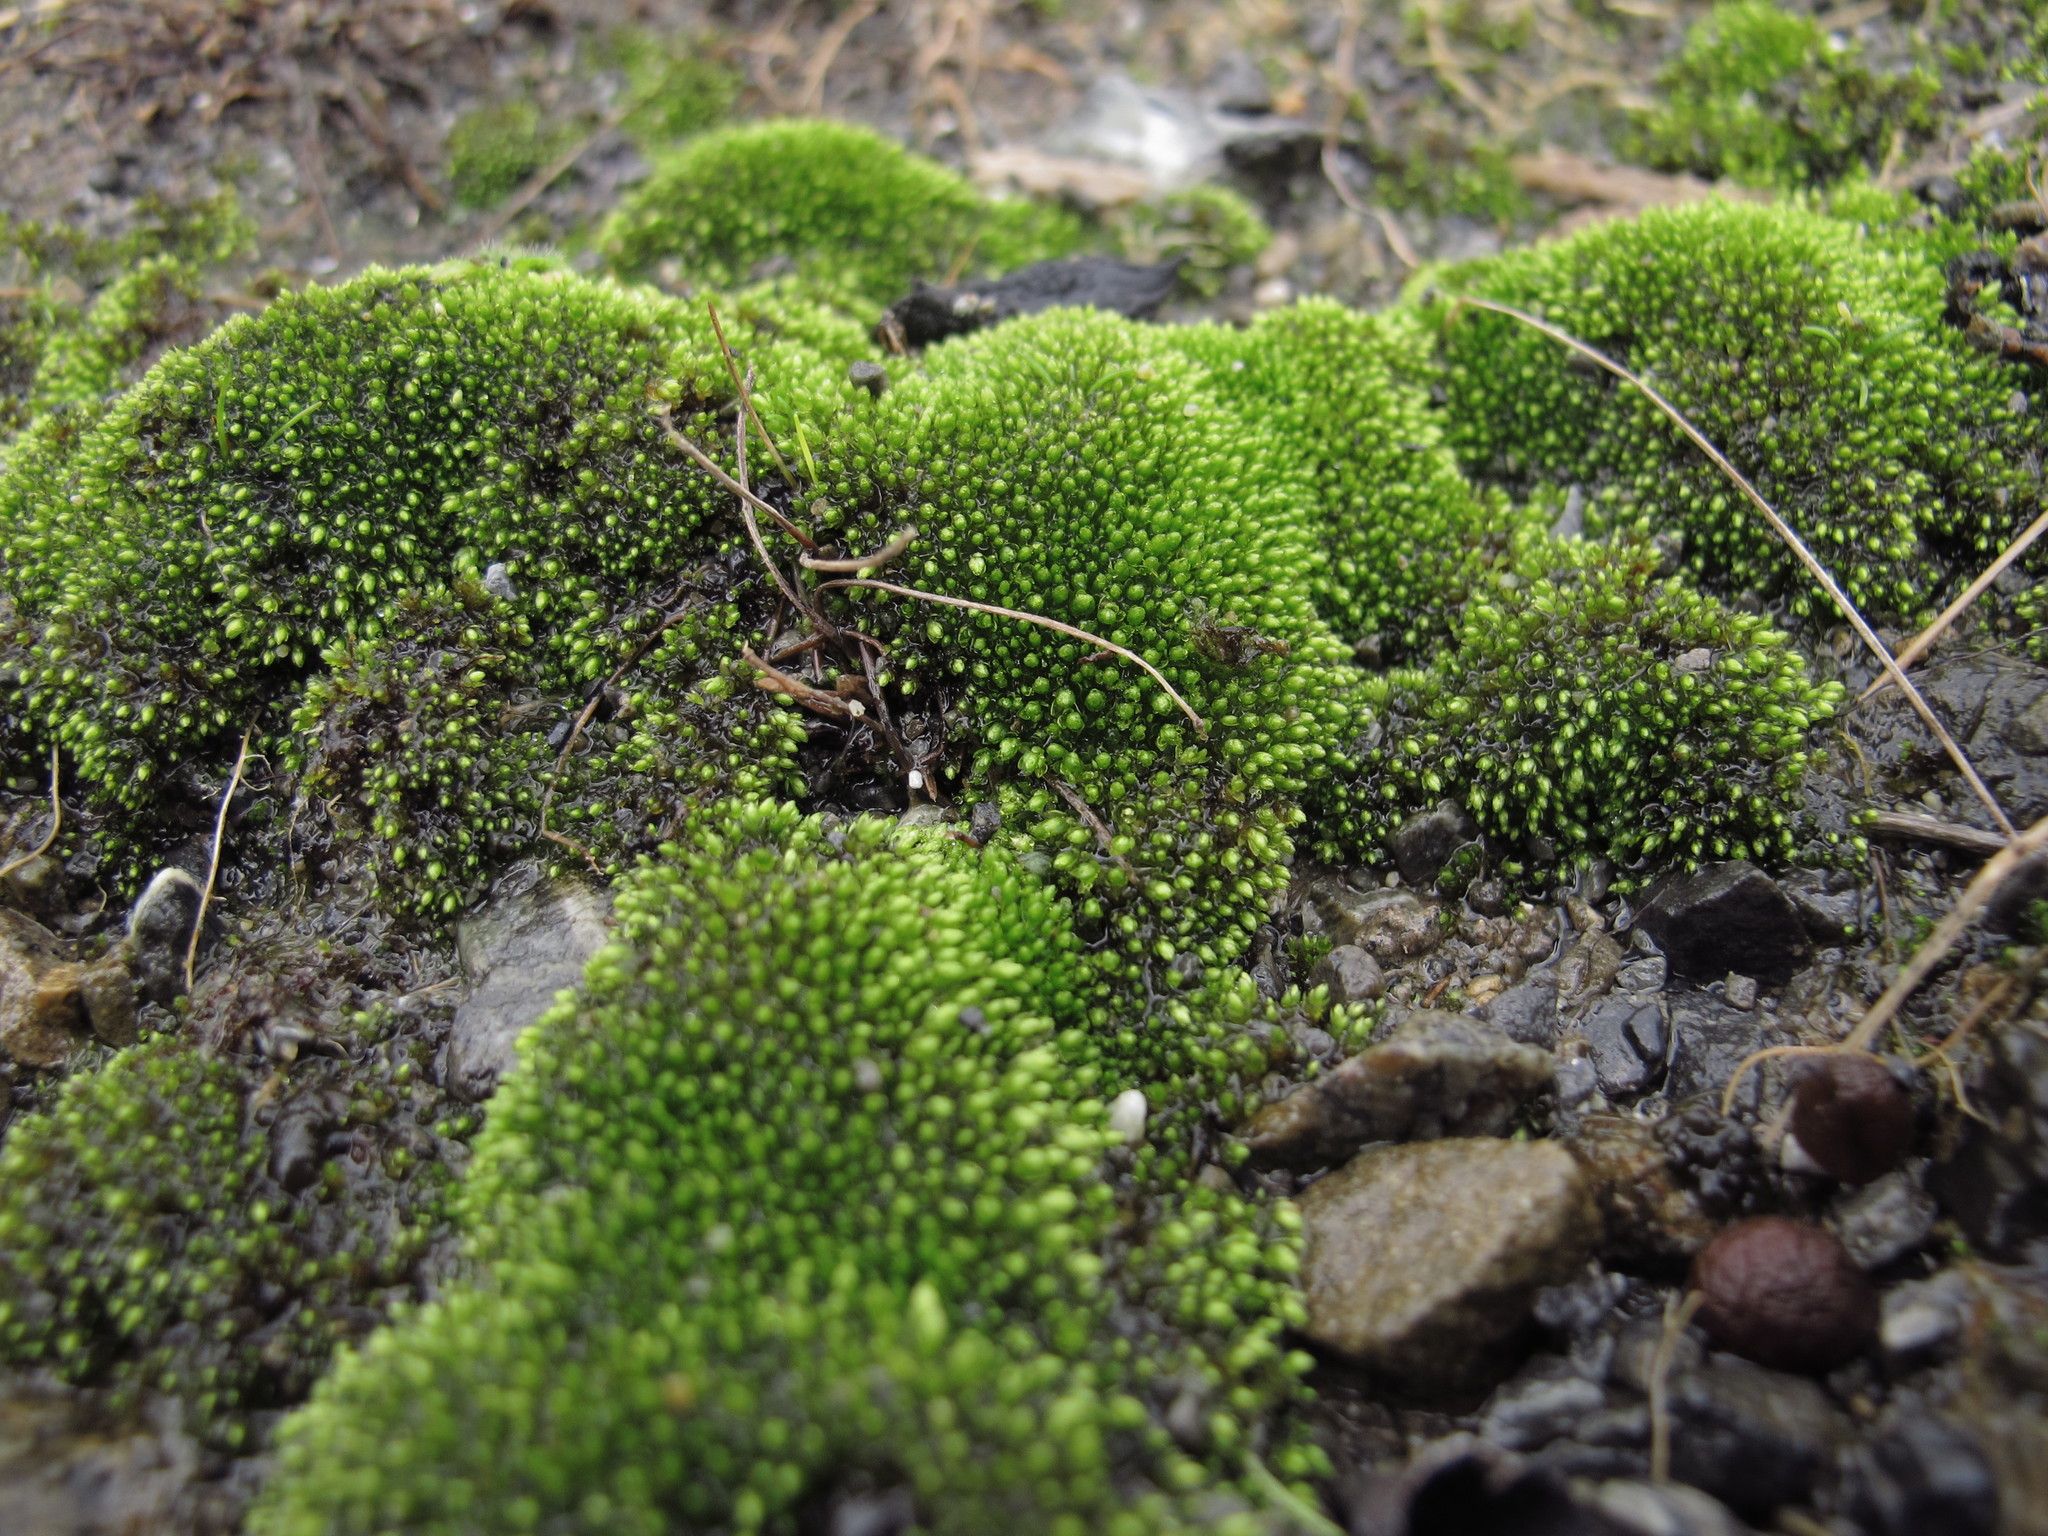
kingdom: Plantae
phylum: Bryophyta
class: Bryopsida
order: Bryales
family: Bryaceae
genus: Ochiobryum
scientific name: Ochiobryum blandum
